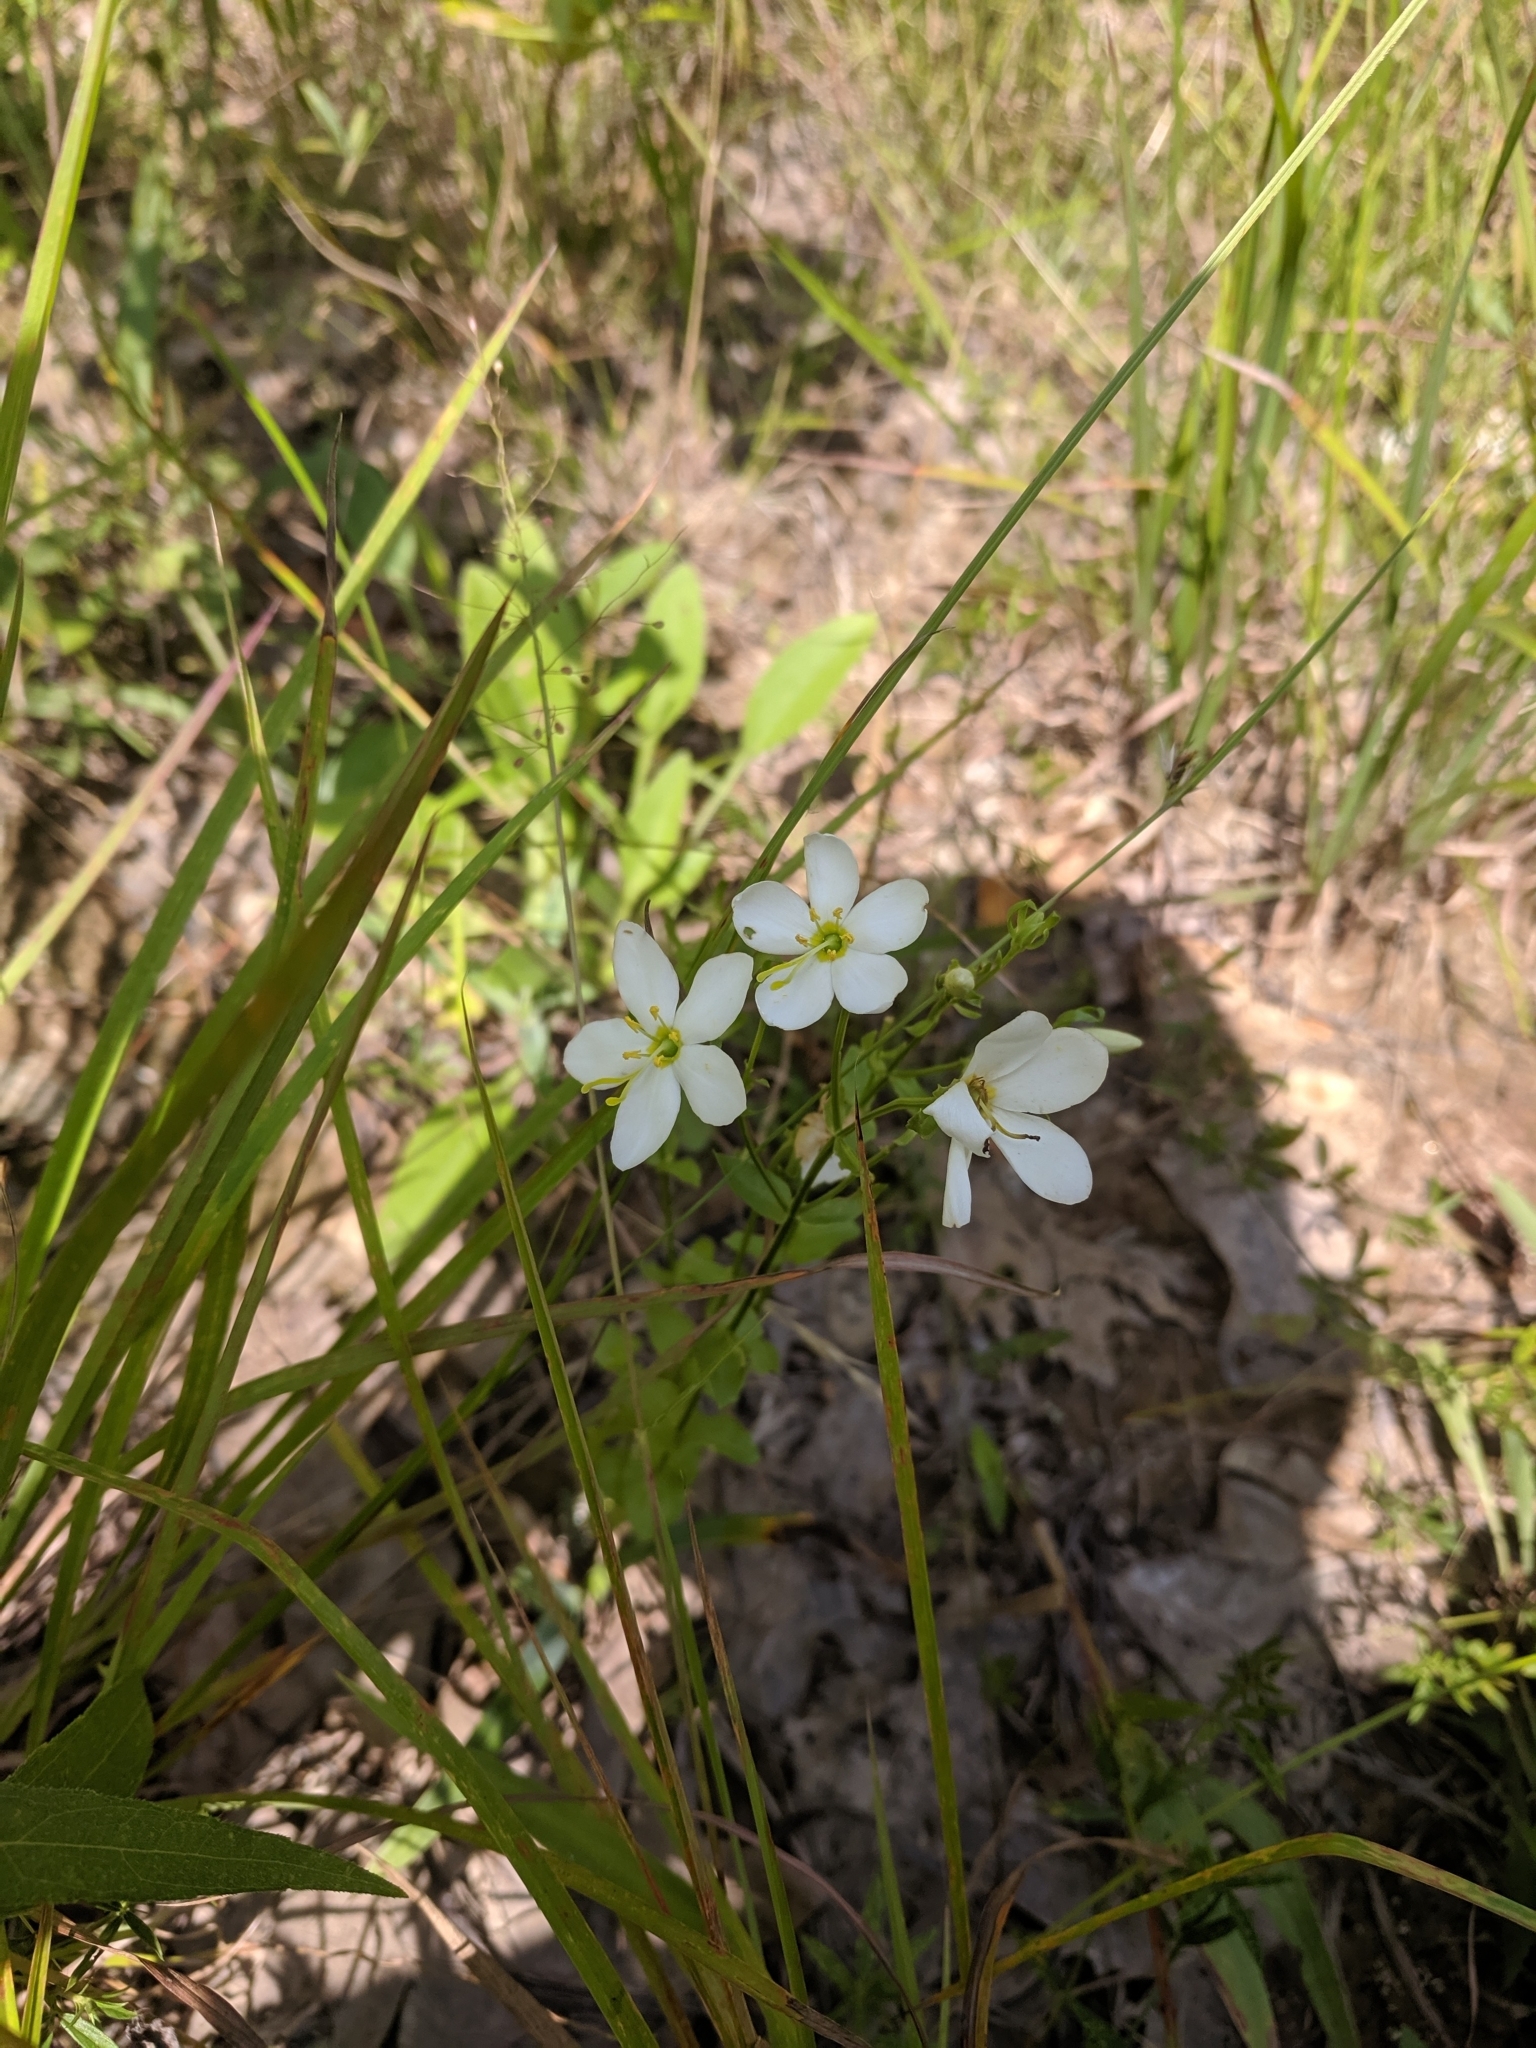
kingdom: Plantae
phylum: Tracheophyta
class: Magnoliopsida
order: Gentianales
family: Gentianaceae
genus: Sabatia
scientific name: Sabatia angularis
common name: Rose-pink
